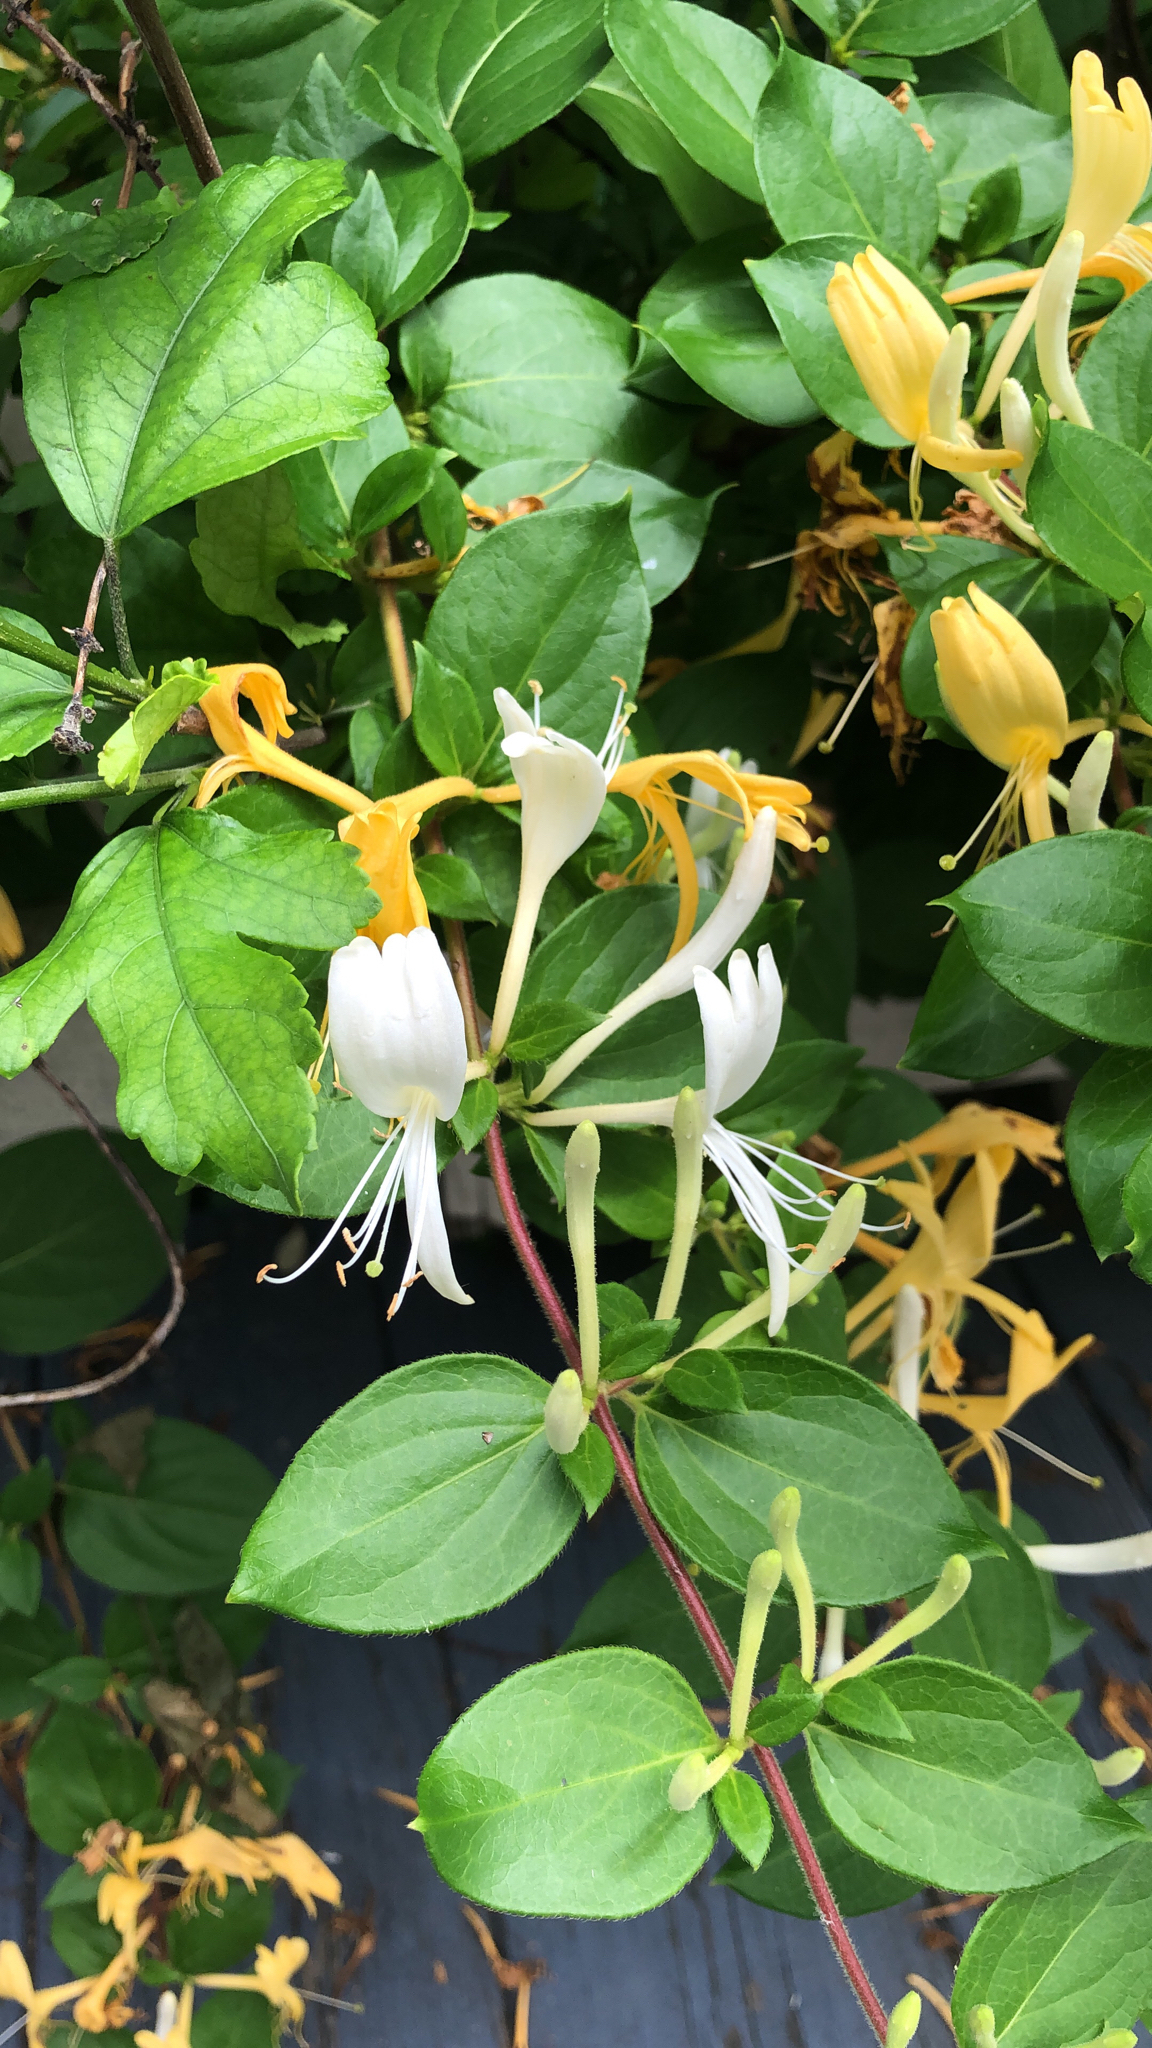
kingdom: Plantae
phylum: Tracheophyta
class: Magnoliopsida
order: Dipsacales
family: Caprifoliaceae
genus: Lonicera
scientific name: Lonicera japonica
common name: Japanese honeysuckle
